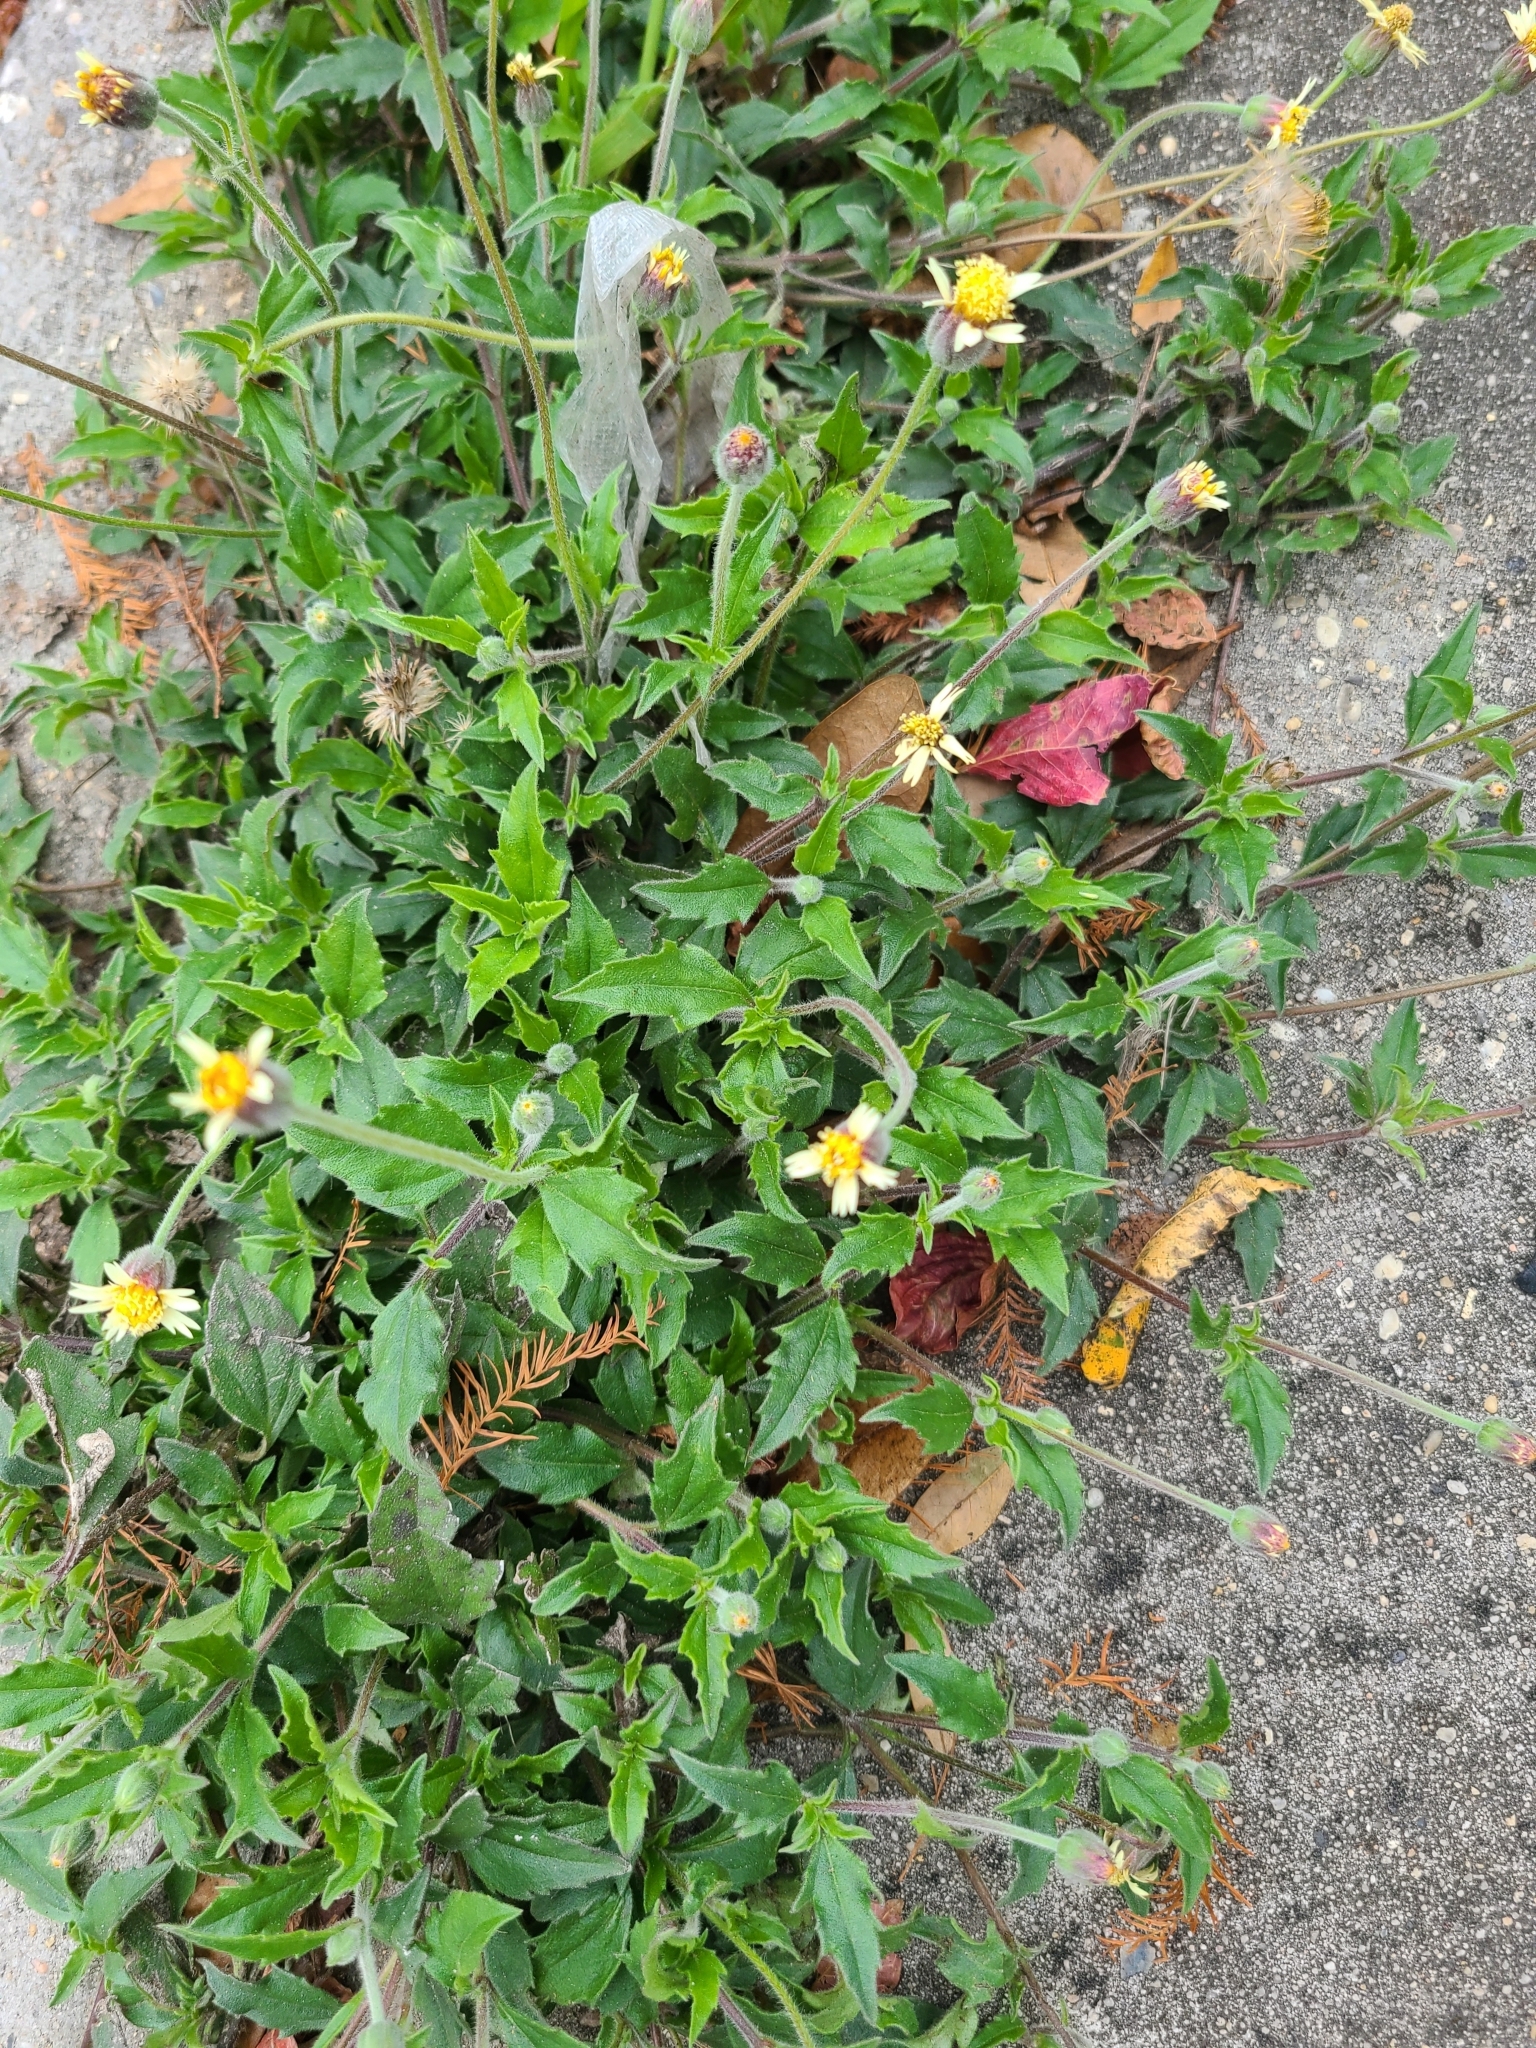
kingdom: Plantae
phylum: Tracheophyta
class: Magnoliopsida
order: Asterales
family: Asteraceae
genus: Tridax
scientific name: Tridax procumbens
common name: Coatbuttons
